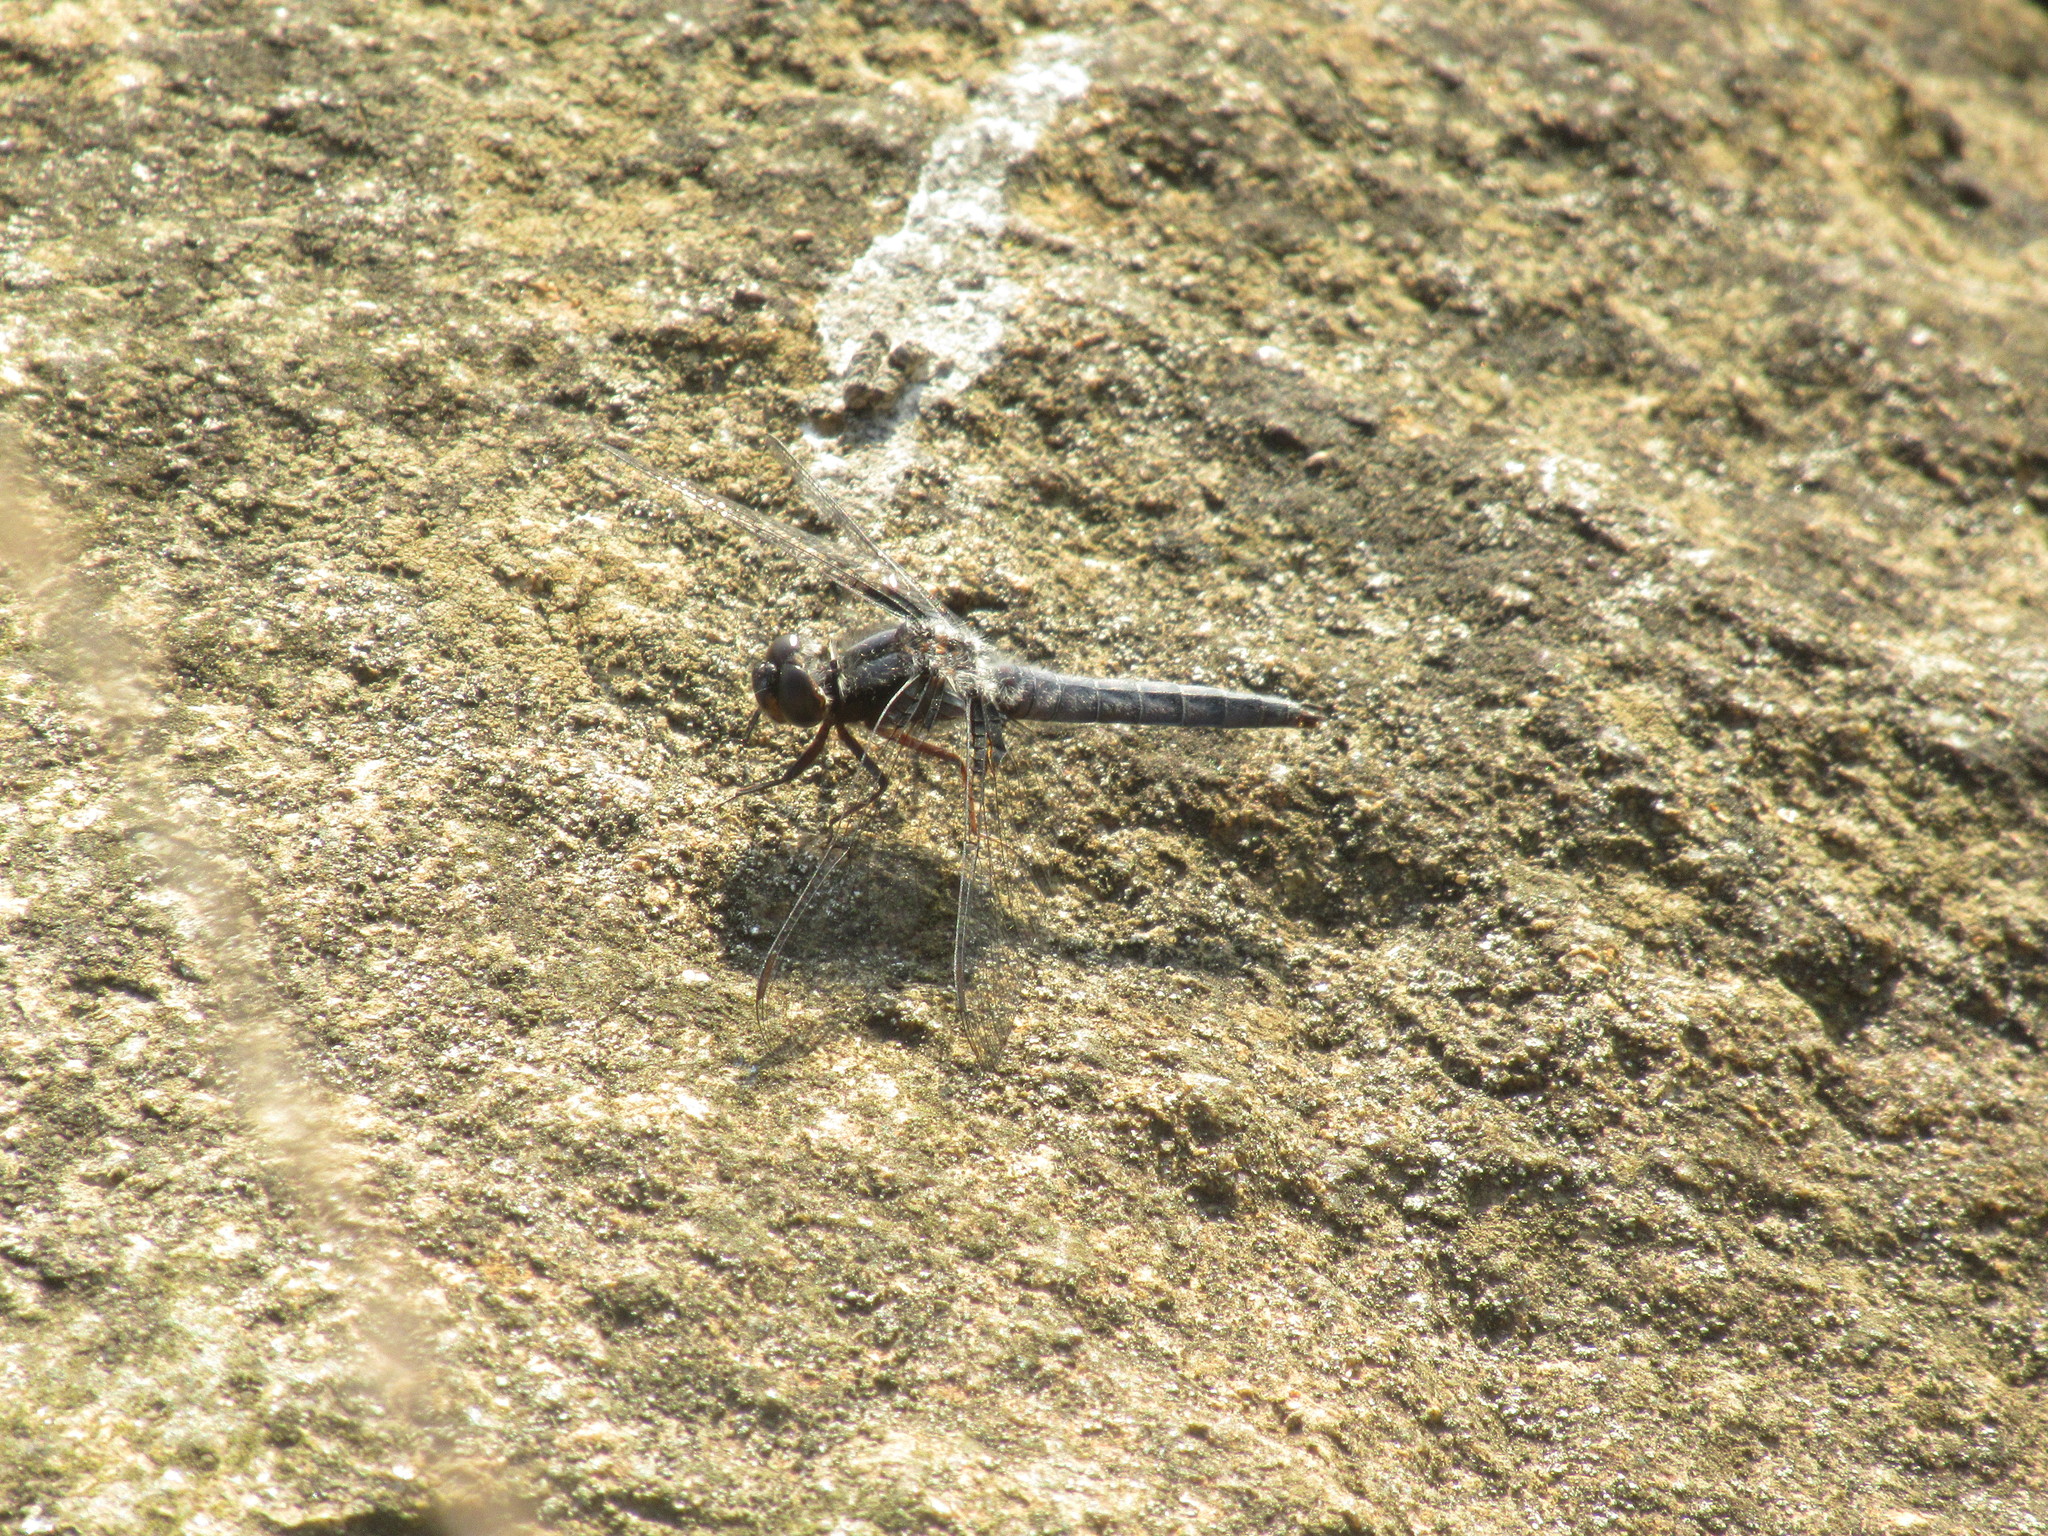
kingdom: Animalia
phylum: Arthropoda
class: Insecta
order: Odonata
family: Libellulidae
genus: Ladona
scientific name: Ladona deplanata
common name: Blue corporal
